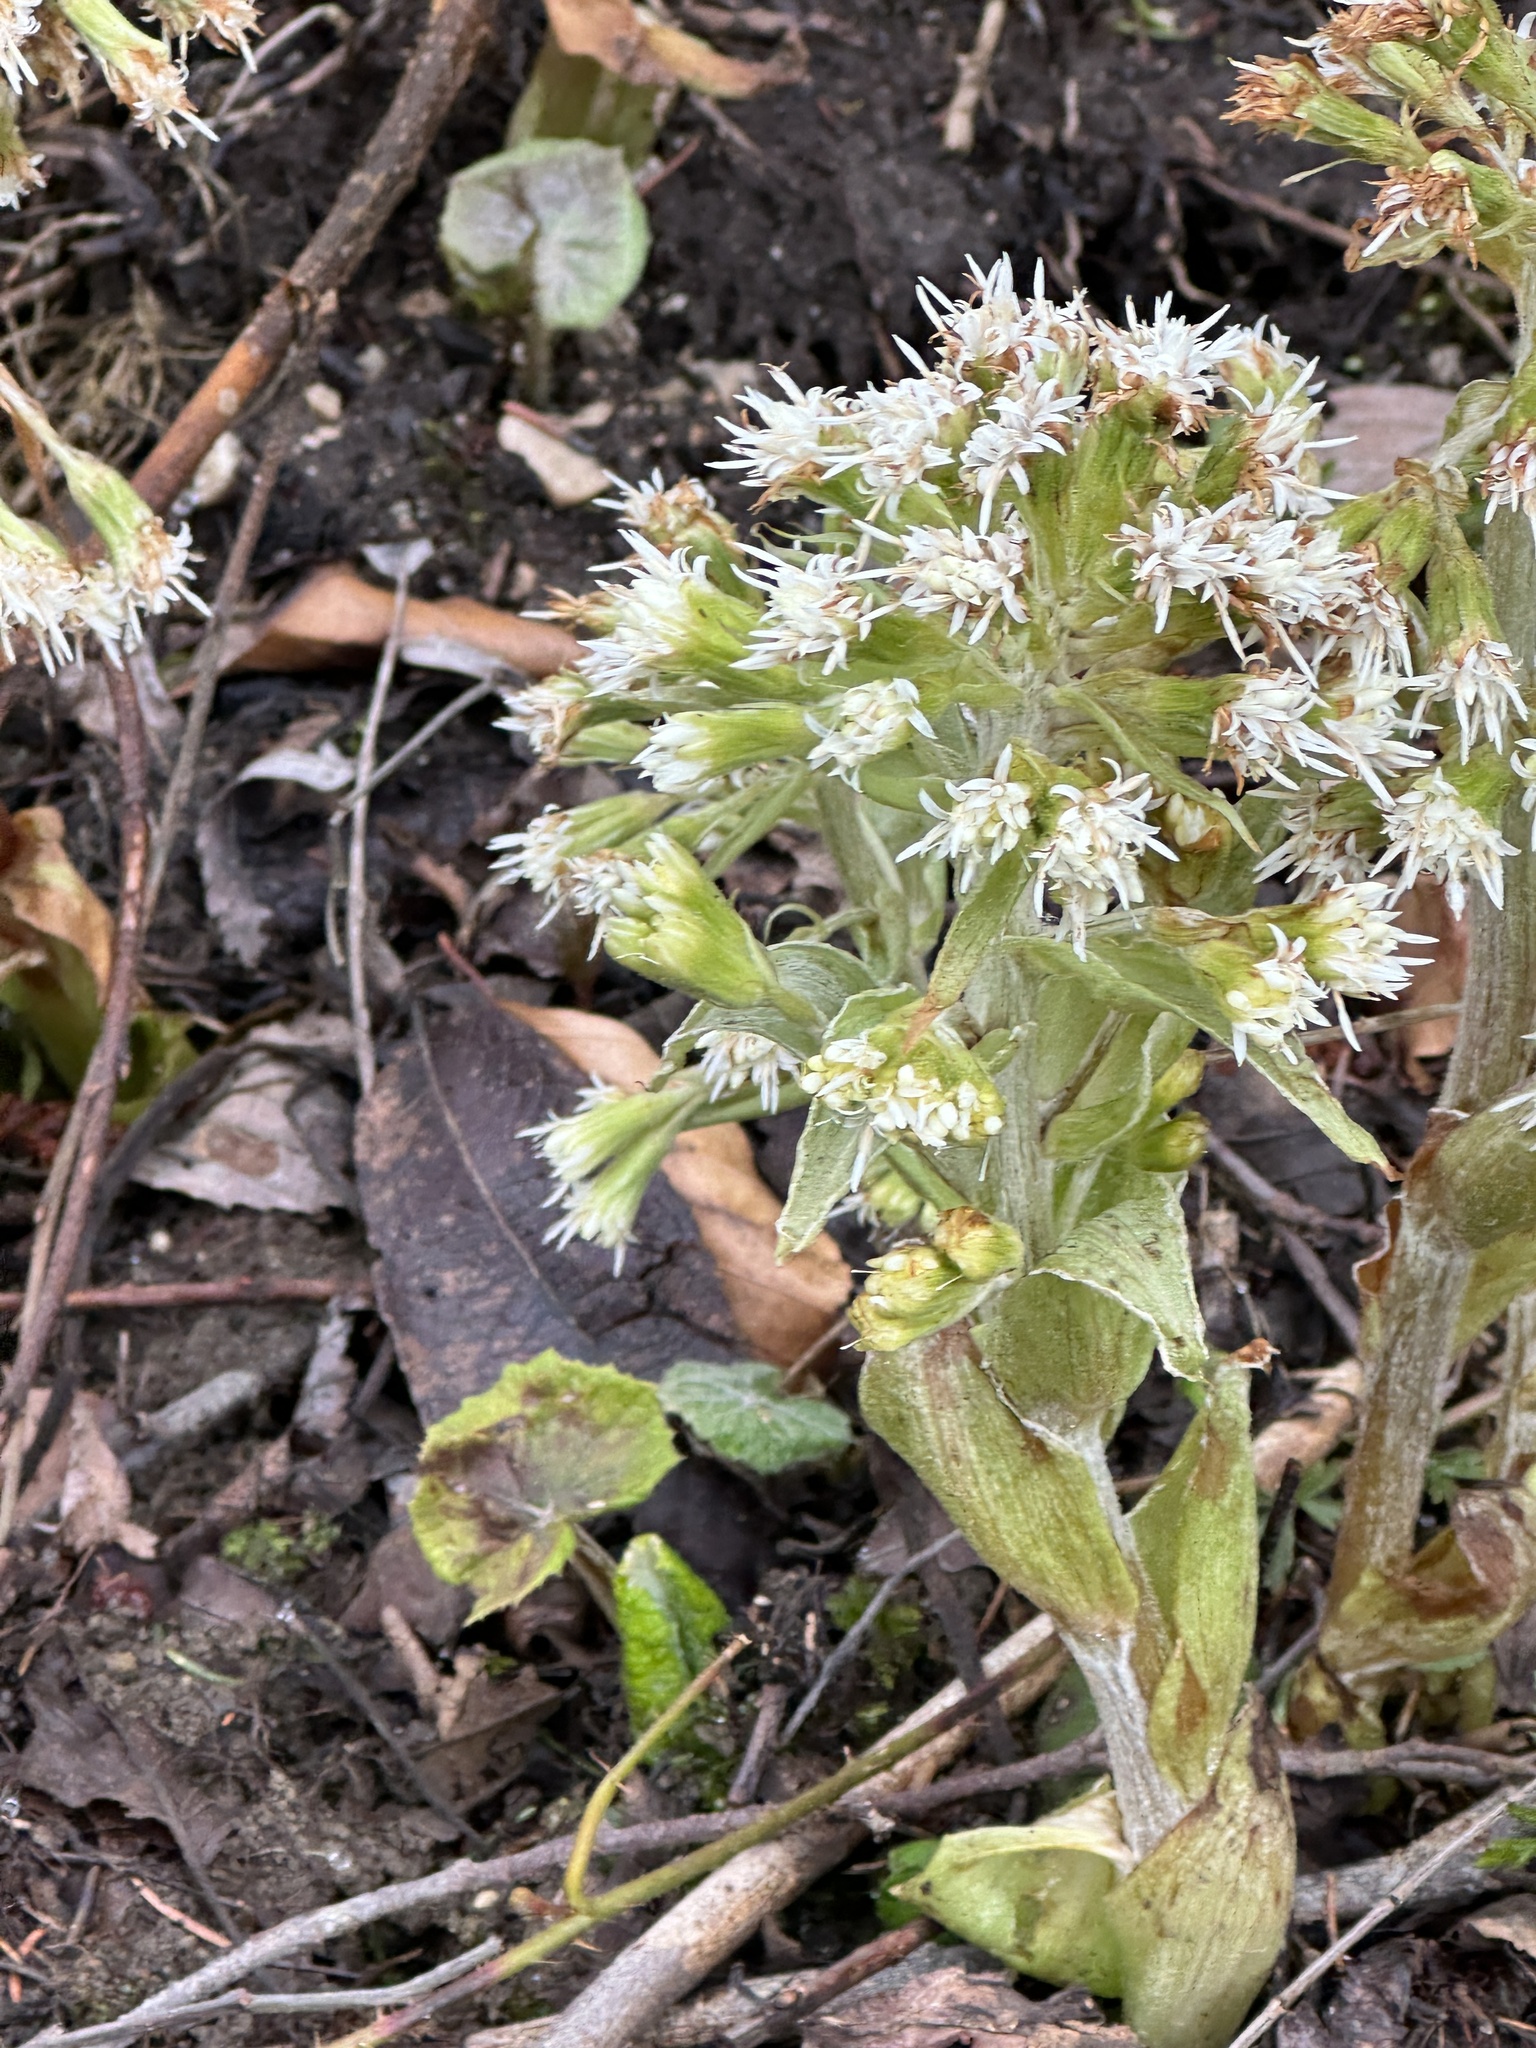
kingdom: Plantae
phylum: Tracheophyta
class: Magnoliopsida
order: Asterales
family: Asteraceae
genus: Petasites
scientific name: Petasites albus
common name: White butterbur
